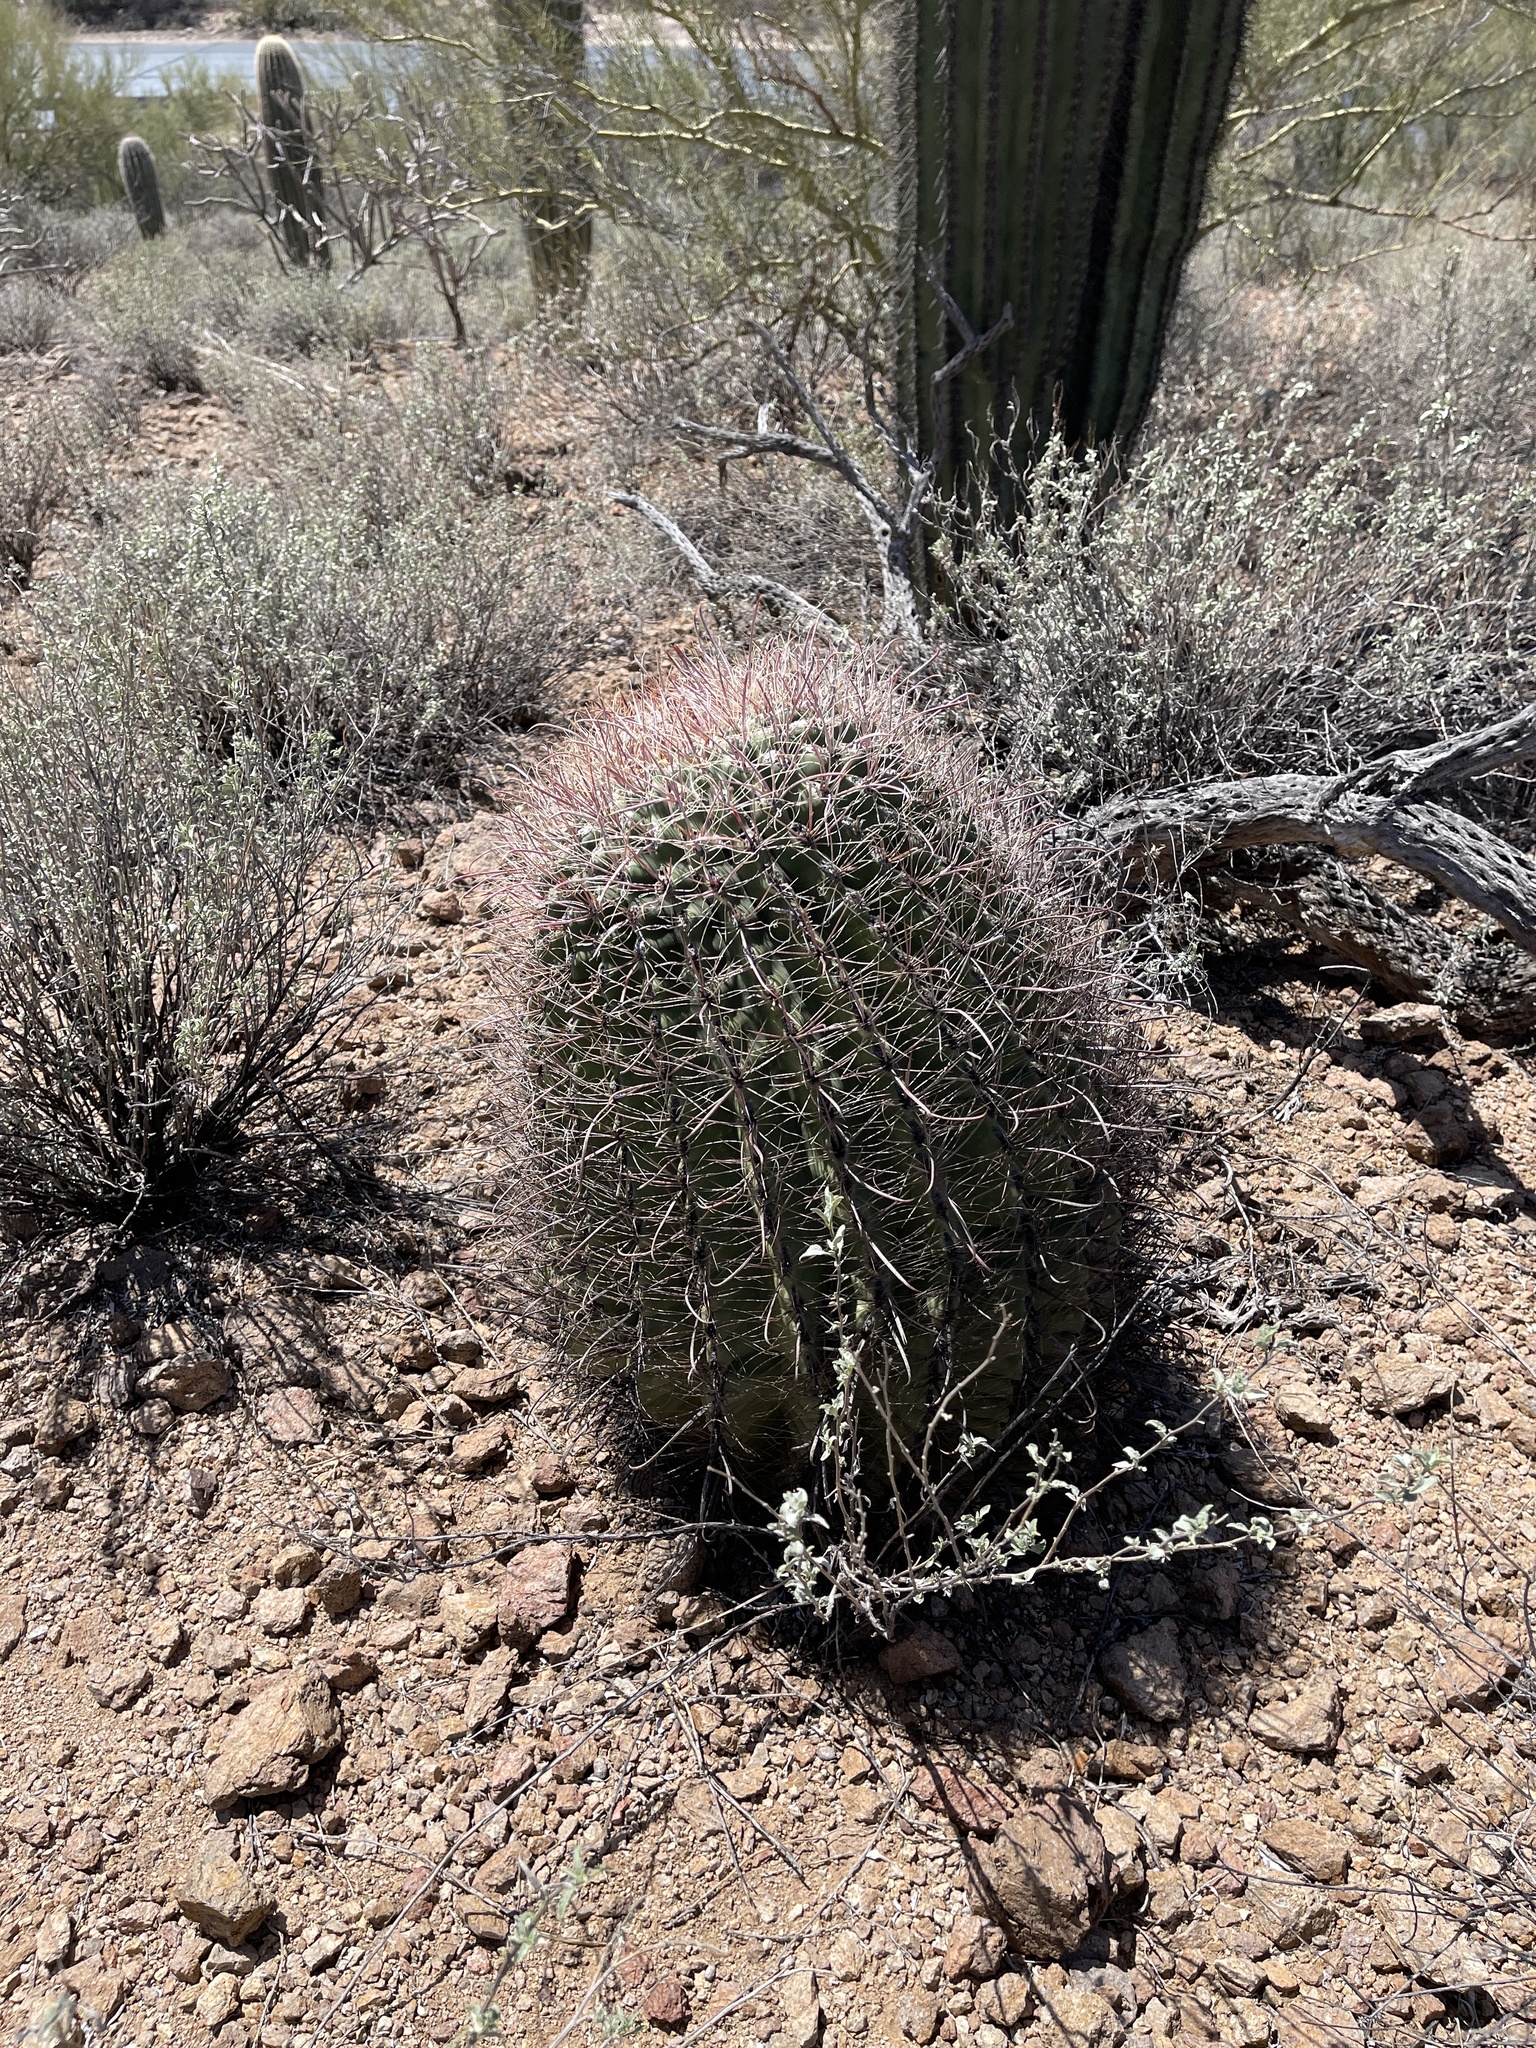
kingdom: Plantae
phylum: Tracheophyta
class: Magnoliopsida
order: Caryophyllales
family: Cactaceae
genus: Ferocactus
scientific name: Ferocactus wislizeni
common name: Candy barrel cactus
